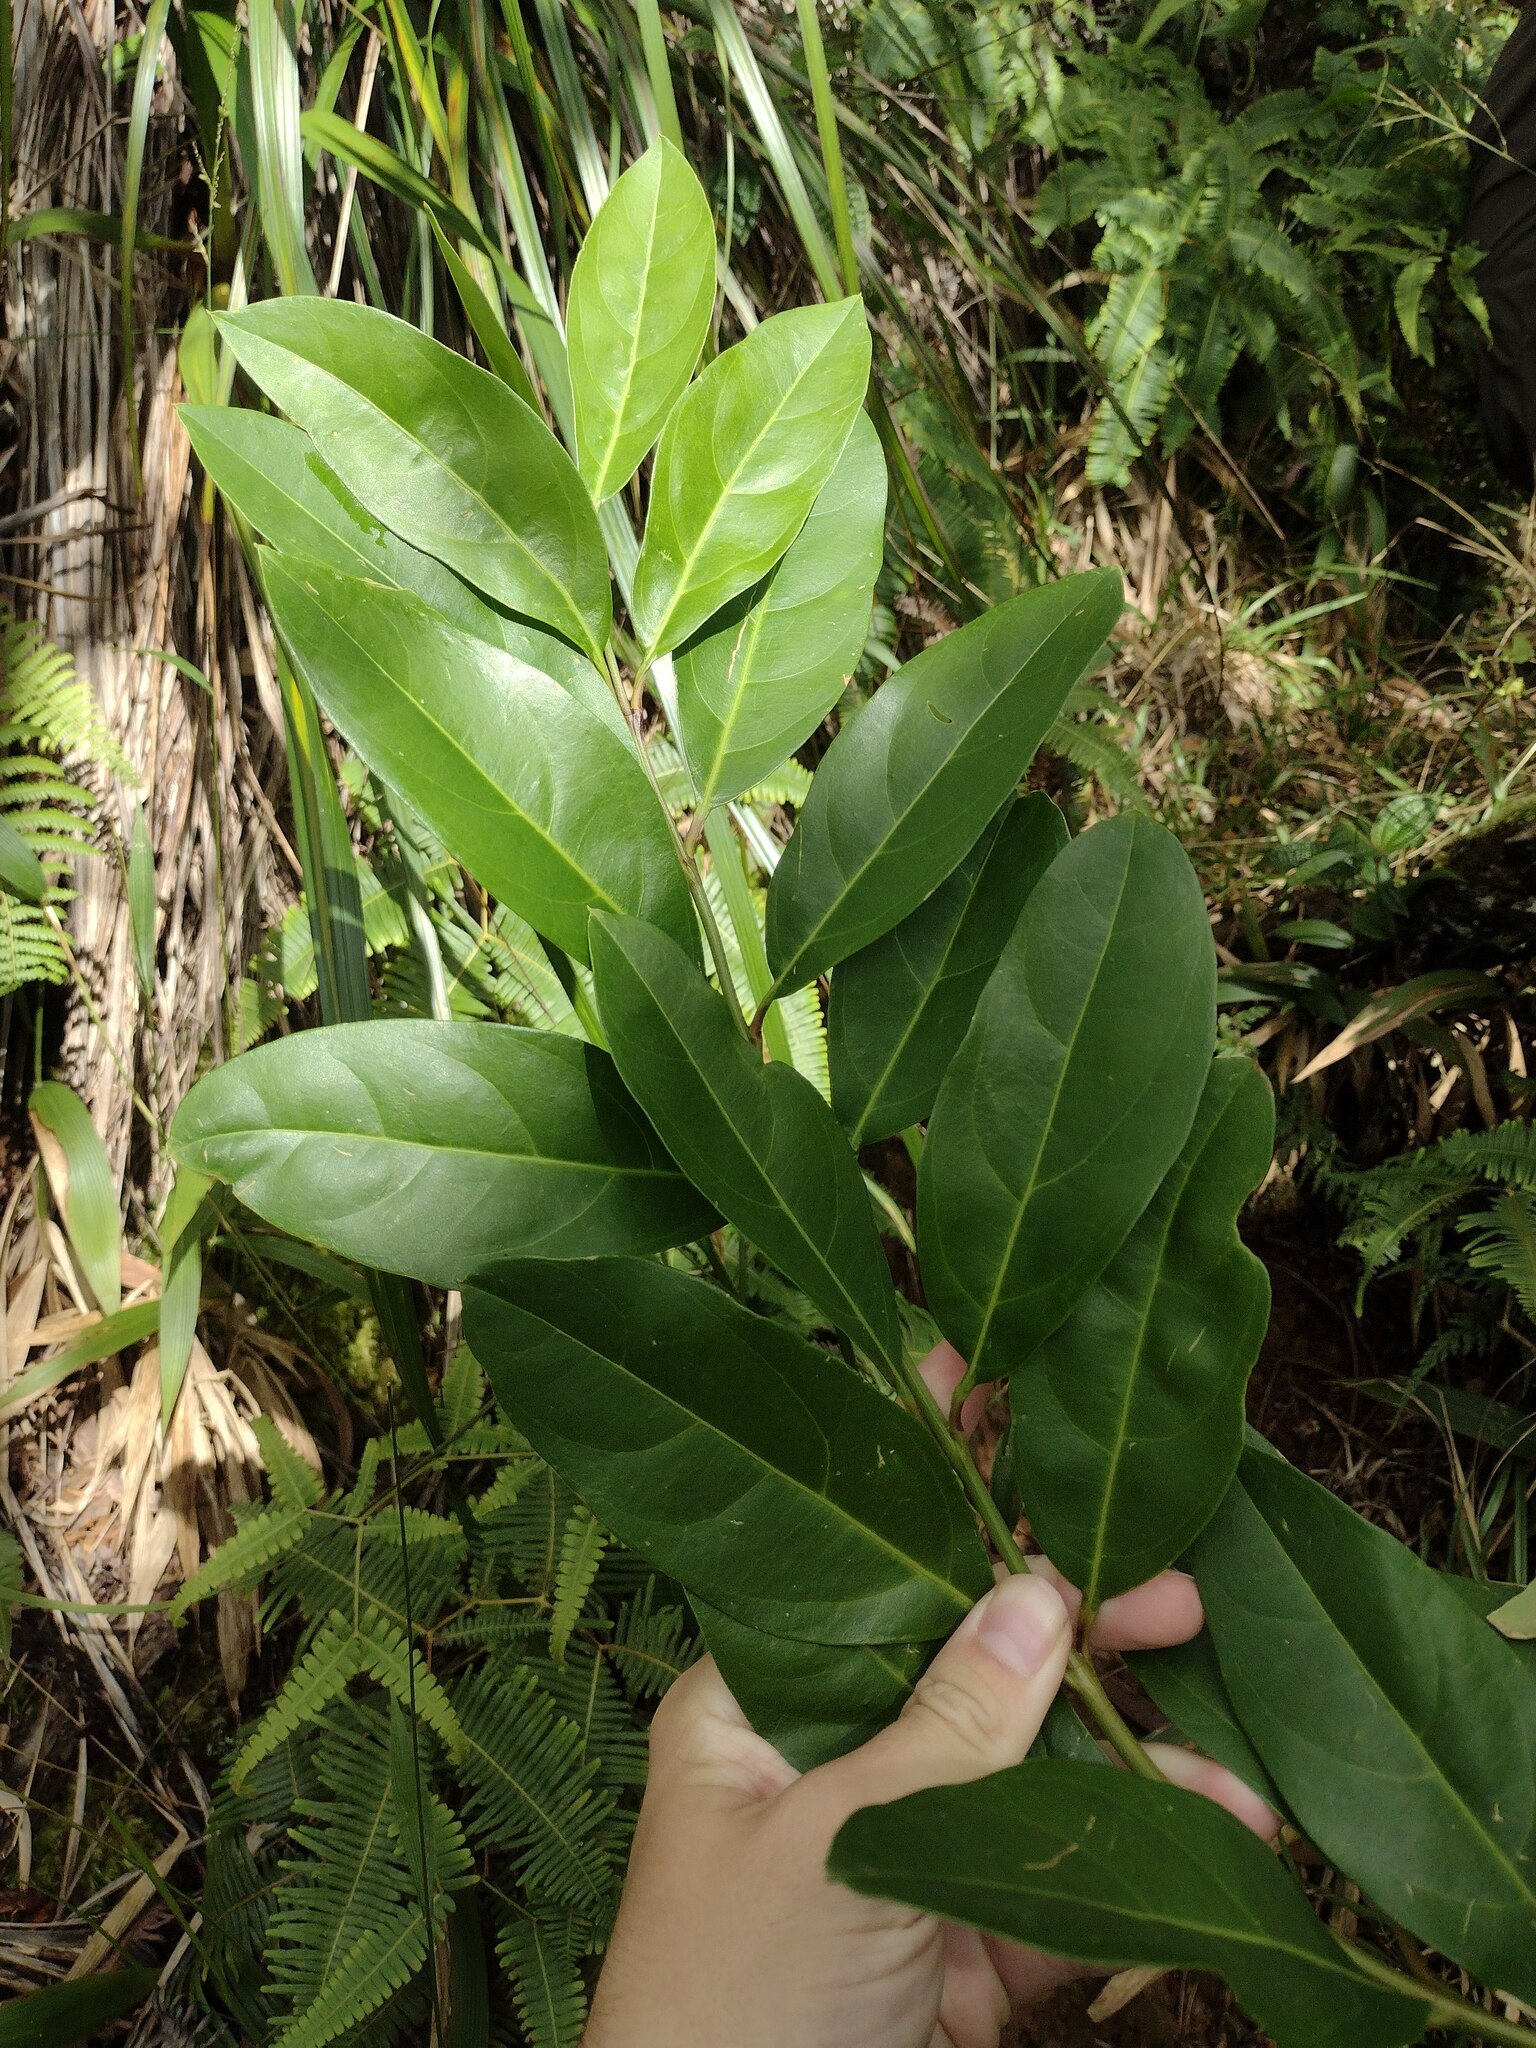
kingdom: Plantae
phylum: Tracheophyta
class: Magnoliopsida
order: Lamiales
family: Verbenaceae
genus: Citharexylum
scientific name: Citharexylum caudatum
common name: Fiddlewood
